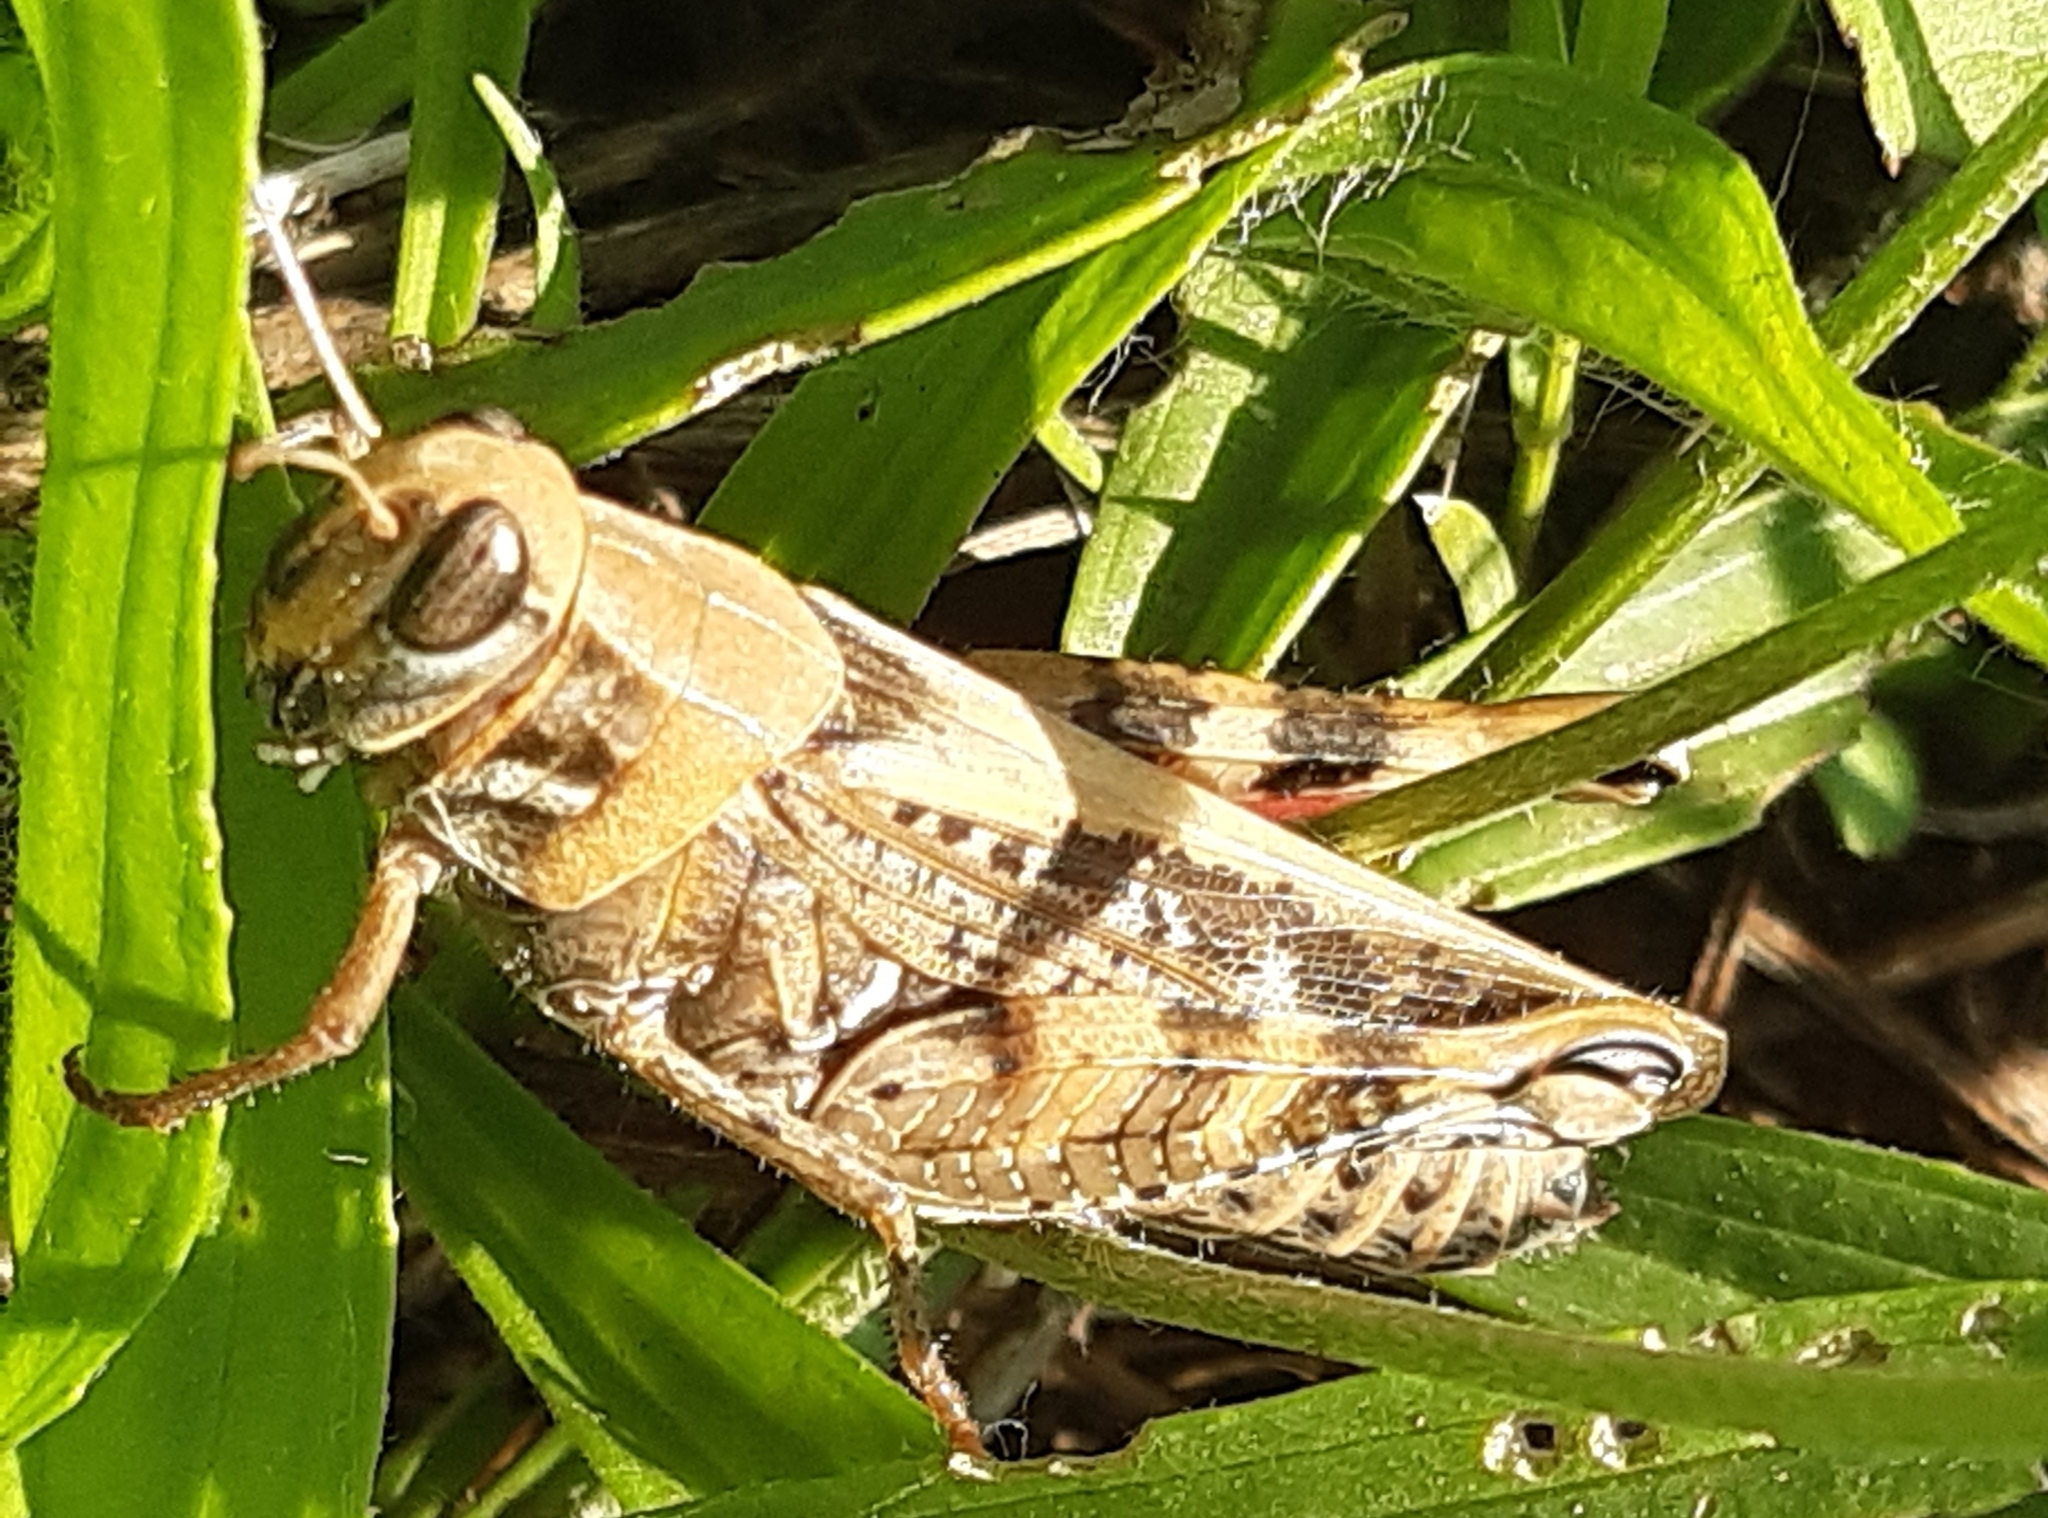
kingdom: Animalia
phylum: Arthropoda
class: Insecta
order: Orthoptera
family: Acrididae
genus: Calliptamus
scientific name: Calliptamus italicus
